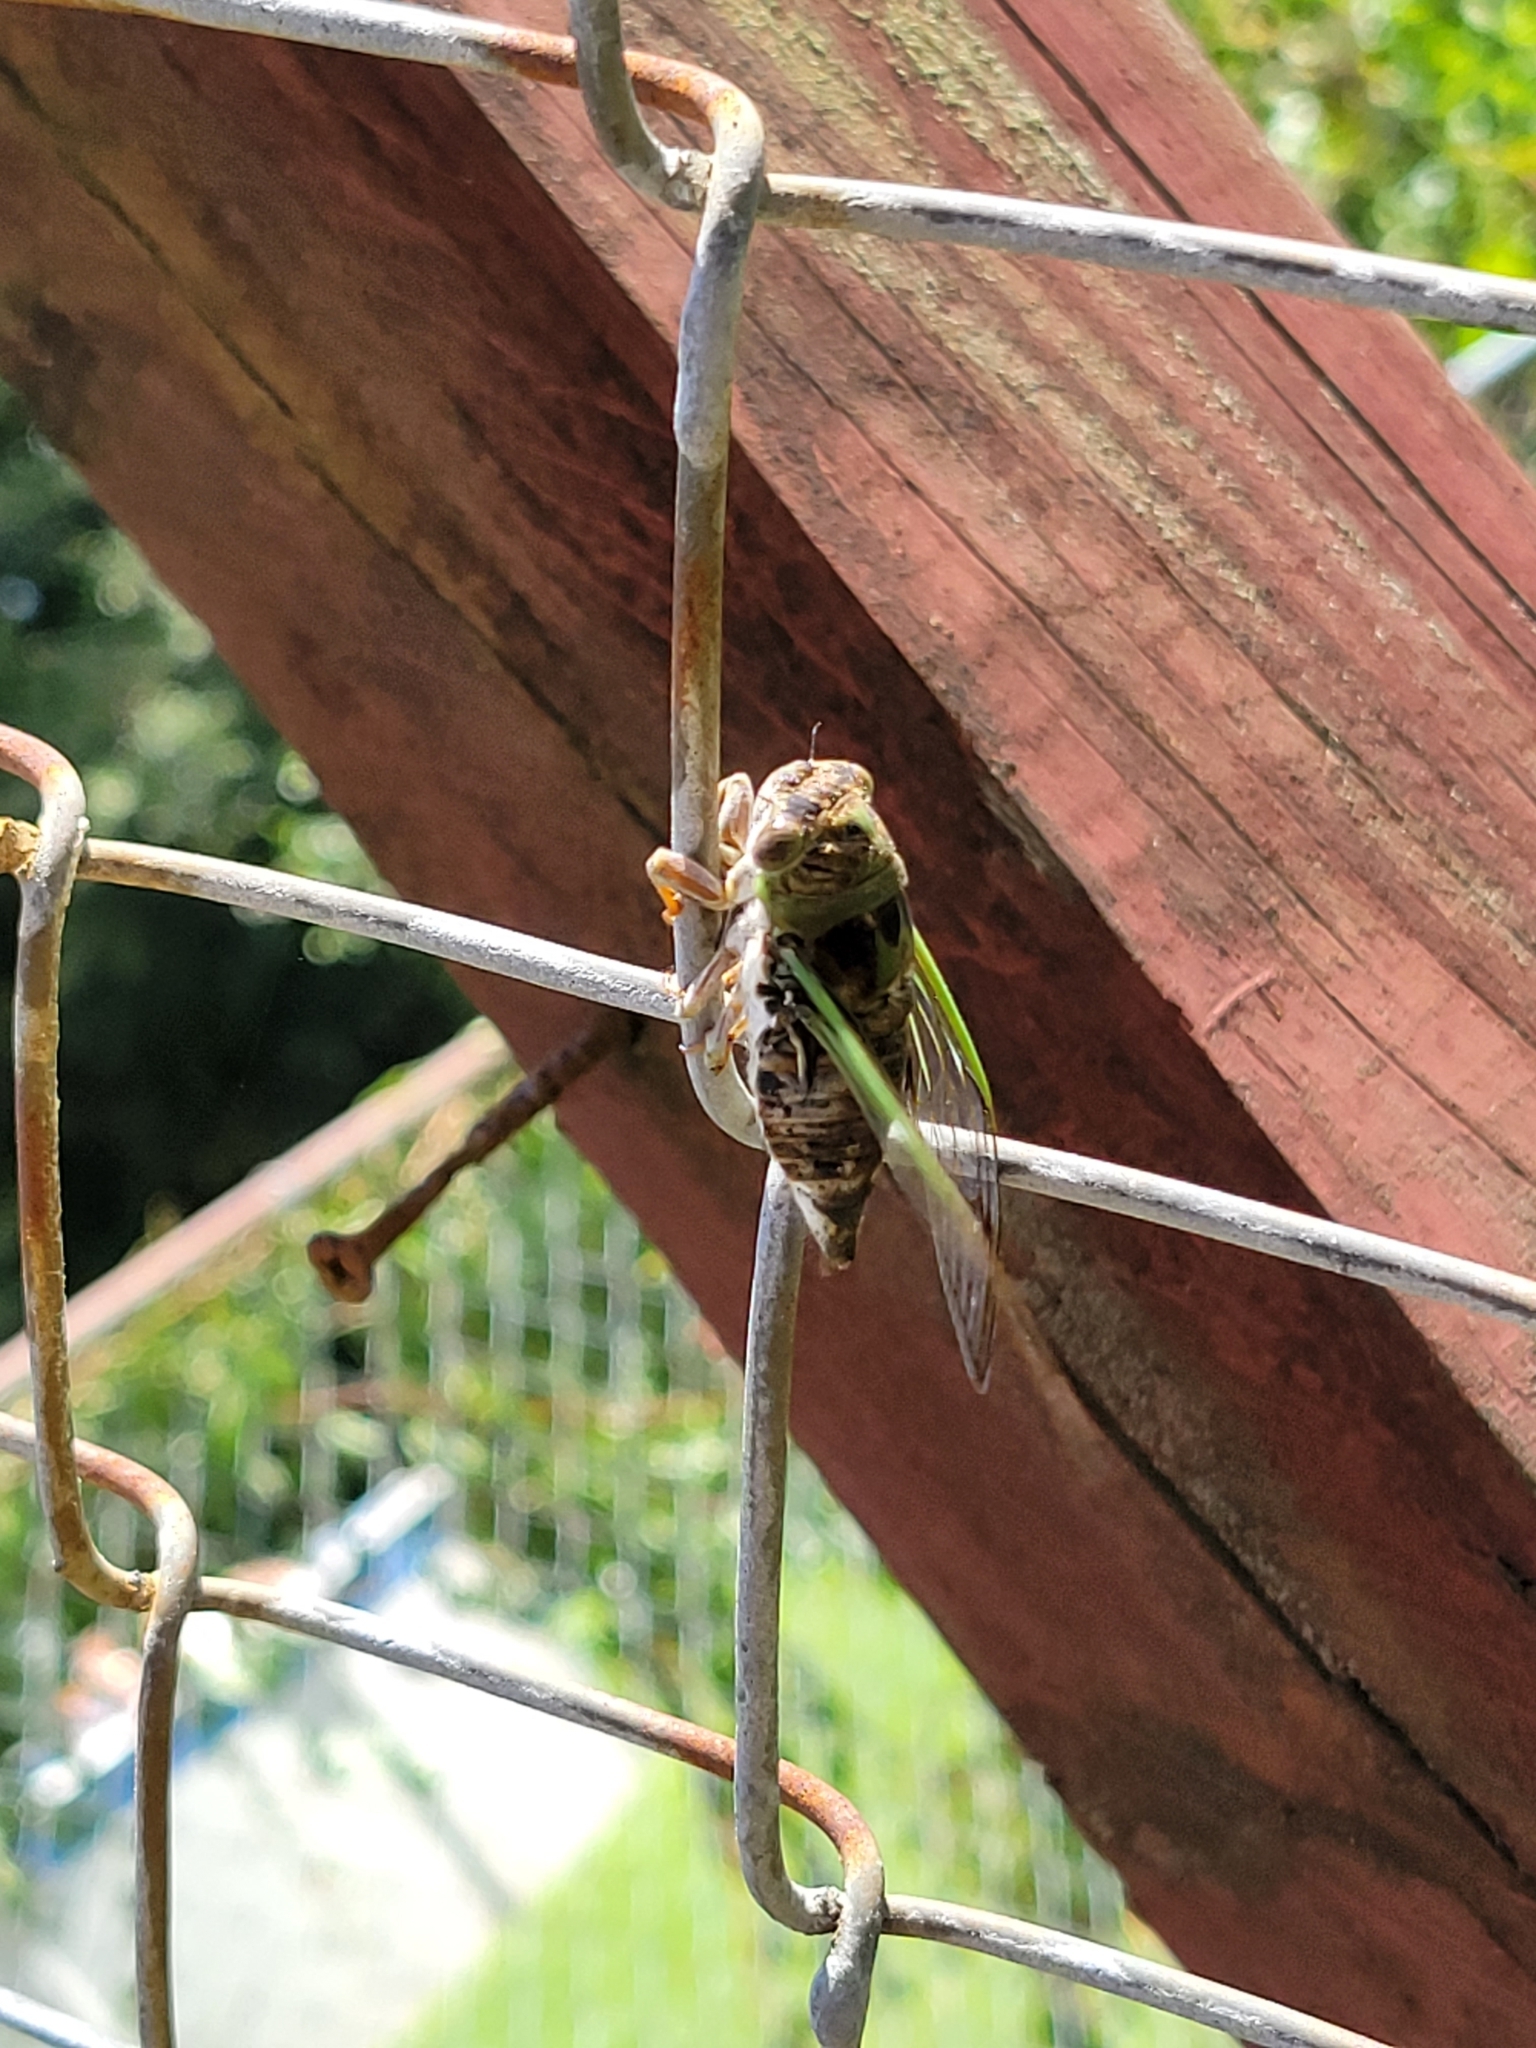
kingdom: Animalia
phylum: Arthropoda
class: Insecta
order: Hemiptera
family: Cicadidae
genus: Neotibicen
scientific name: Neotibicen davisi
